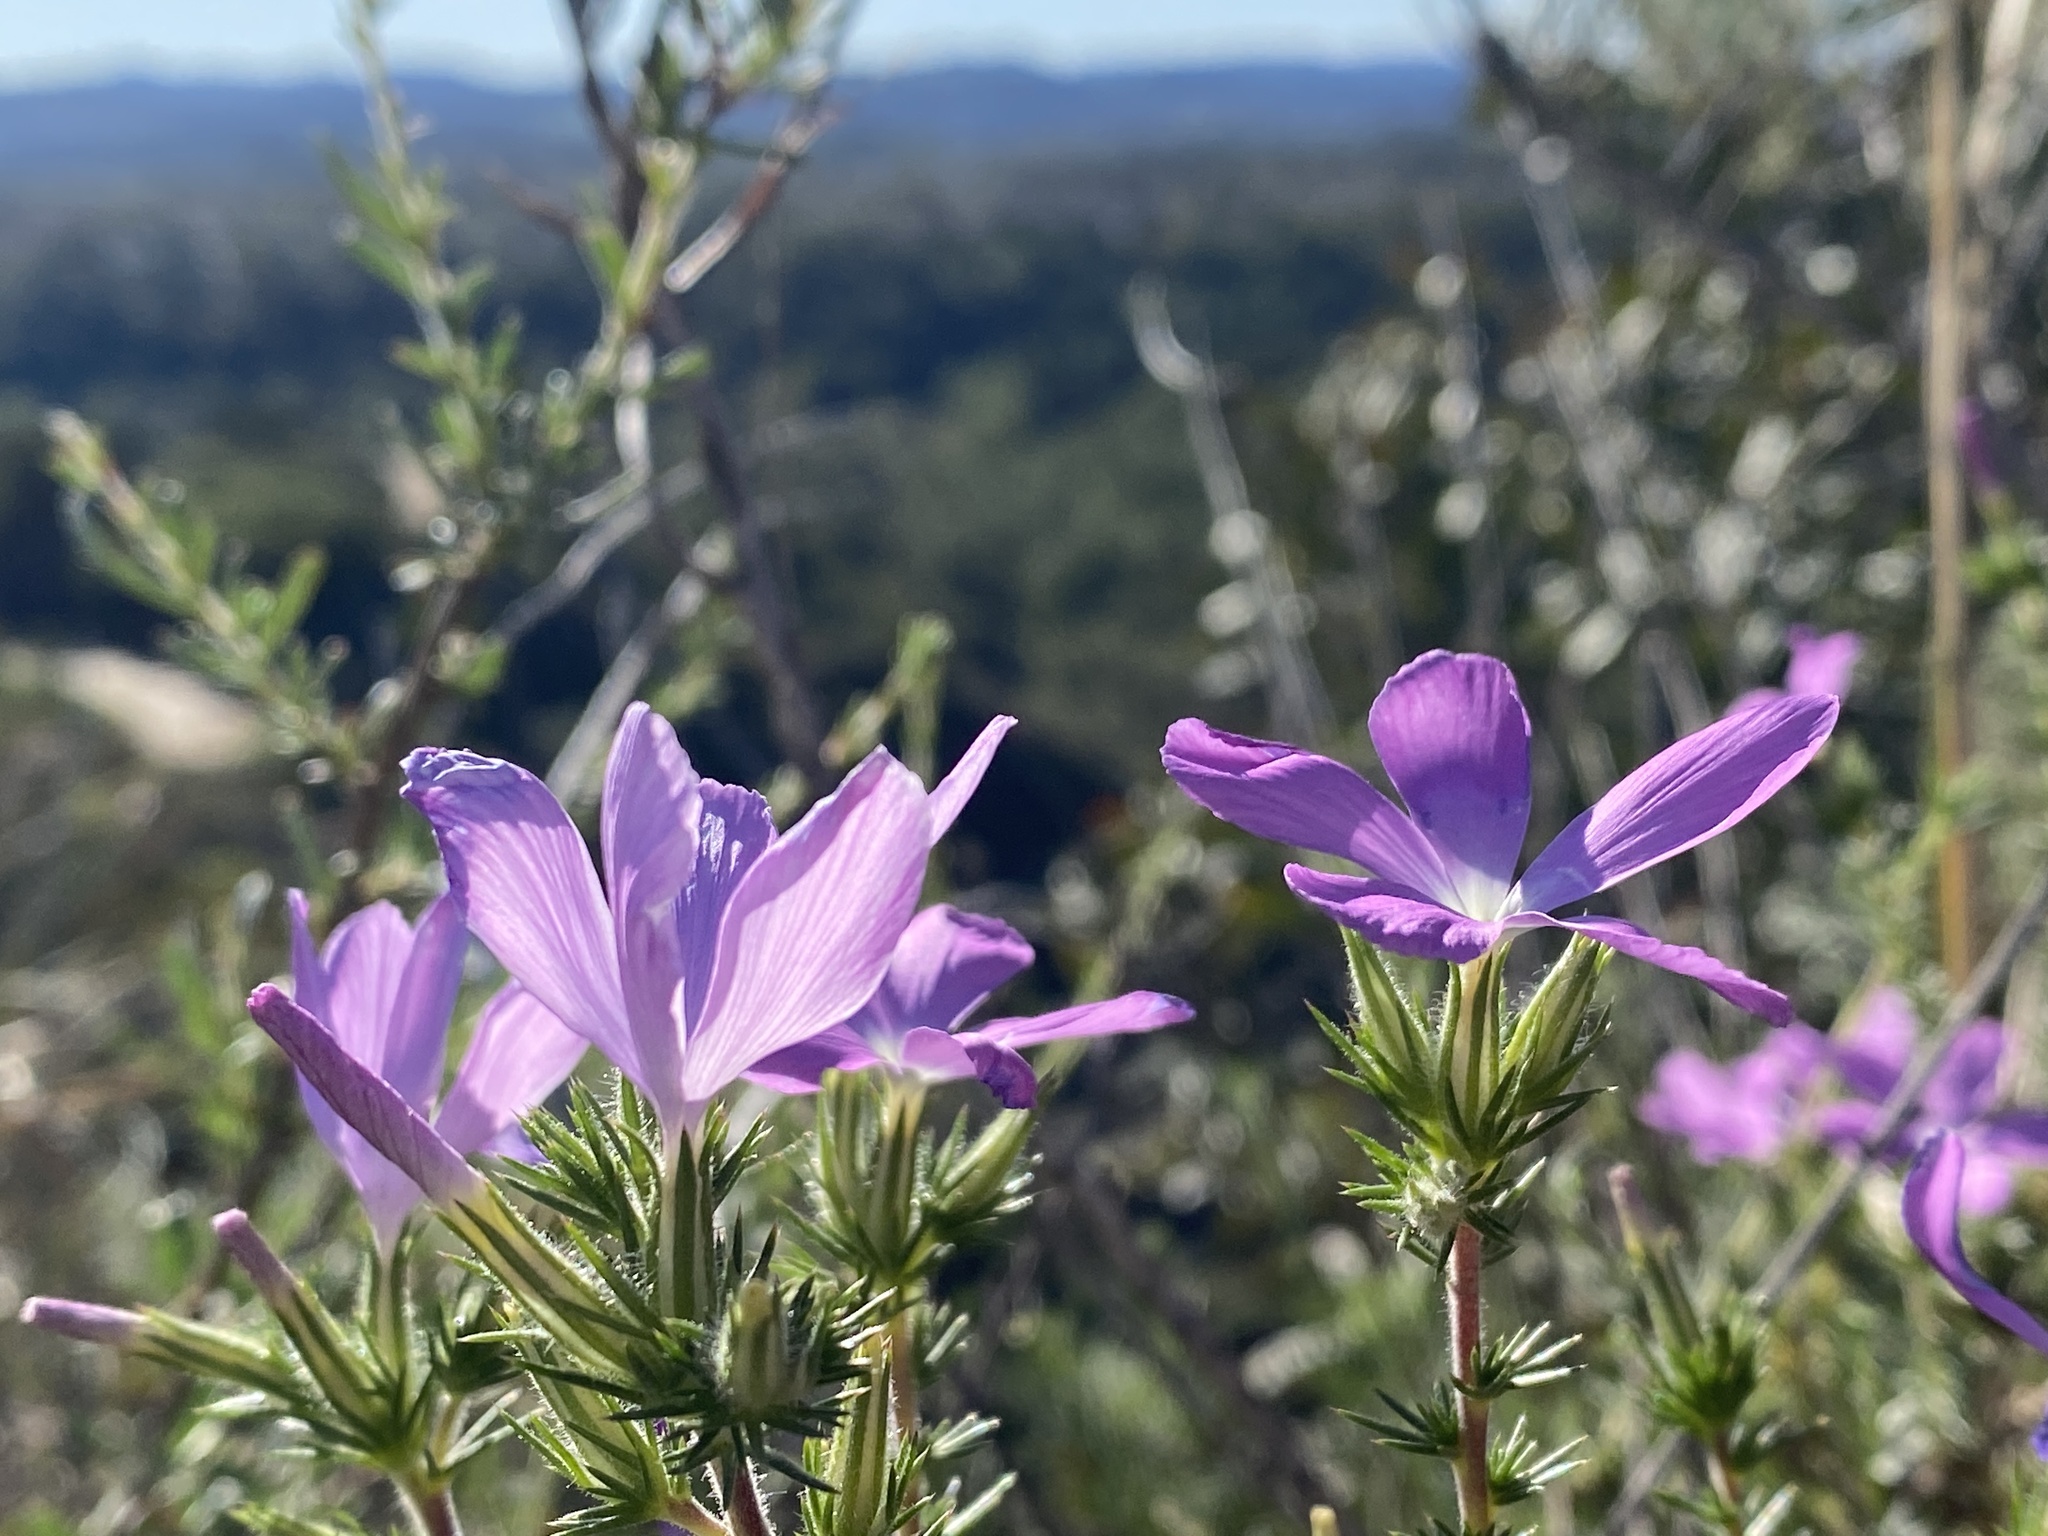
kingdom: Plantae
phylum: Tracheophyta
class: Magnoliopsida
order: Ericales
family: Polemoniaceae
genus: Linanthus
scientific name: Linanthus californicus
